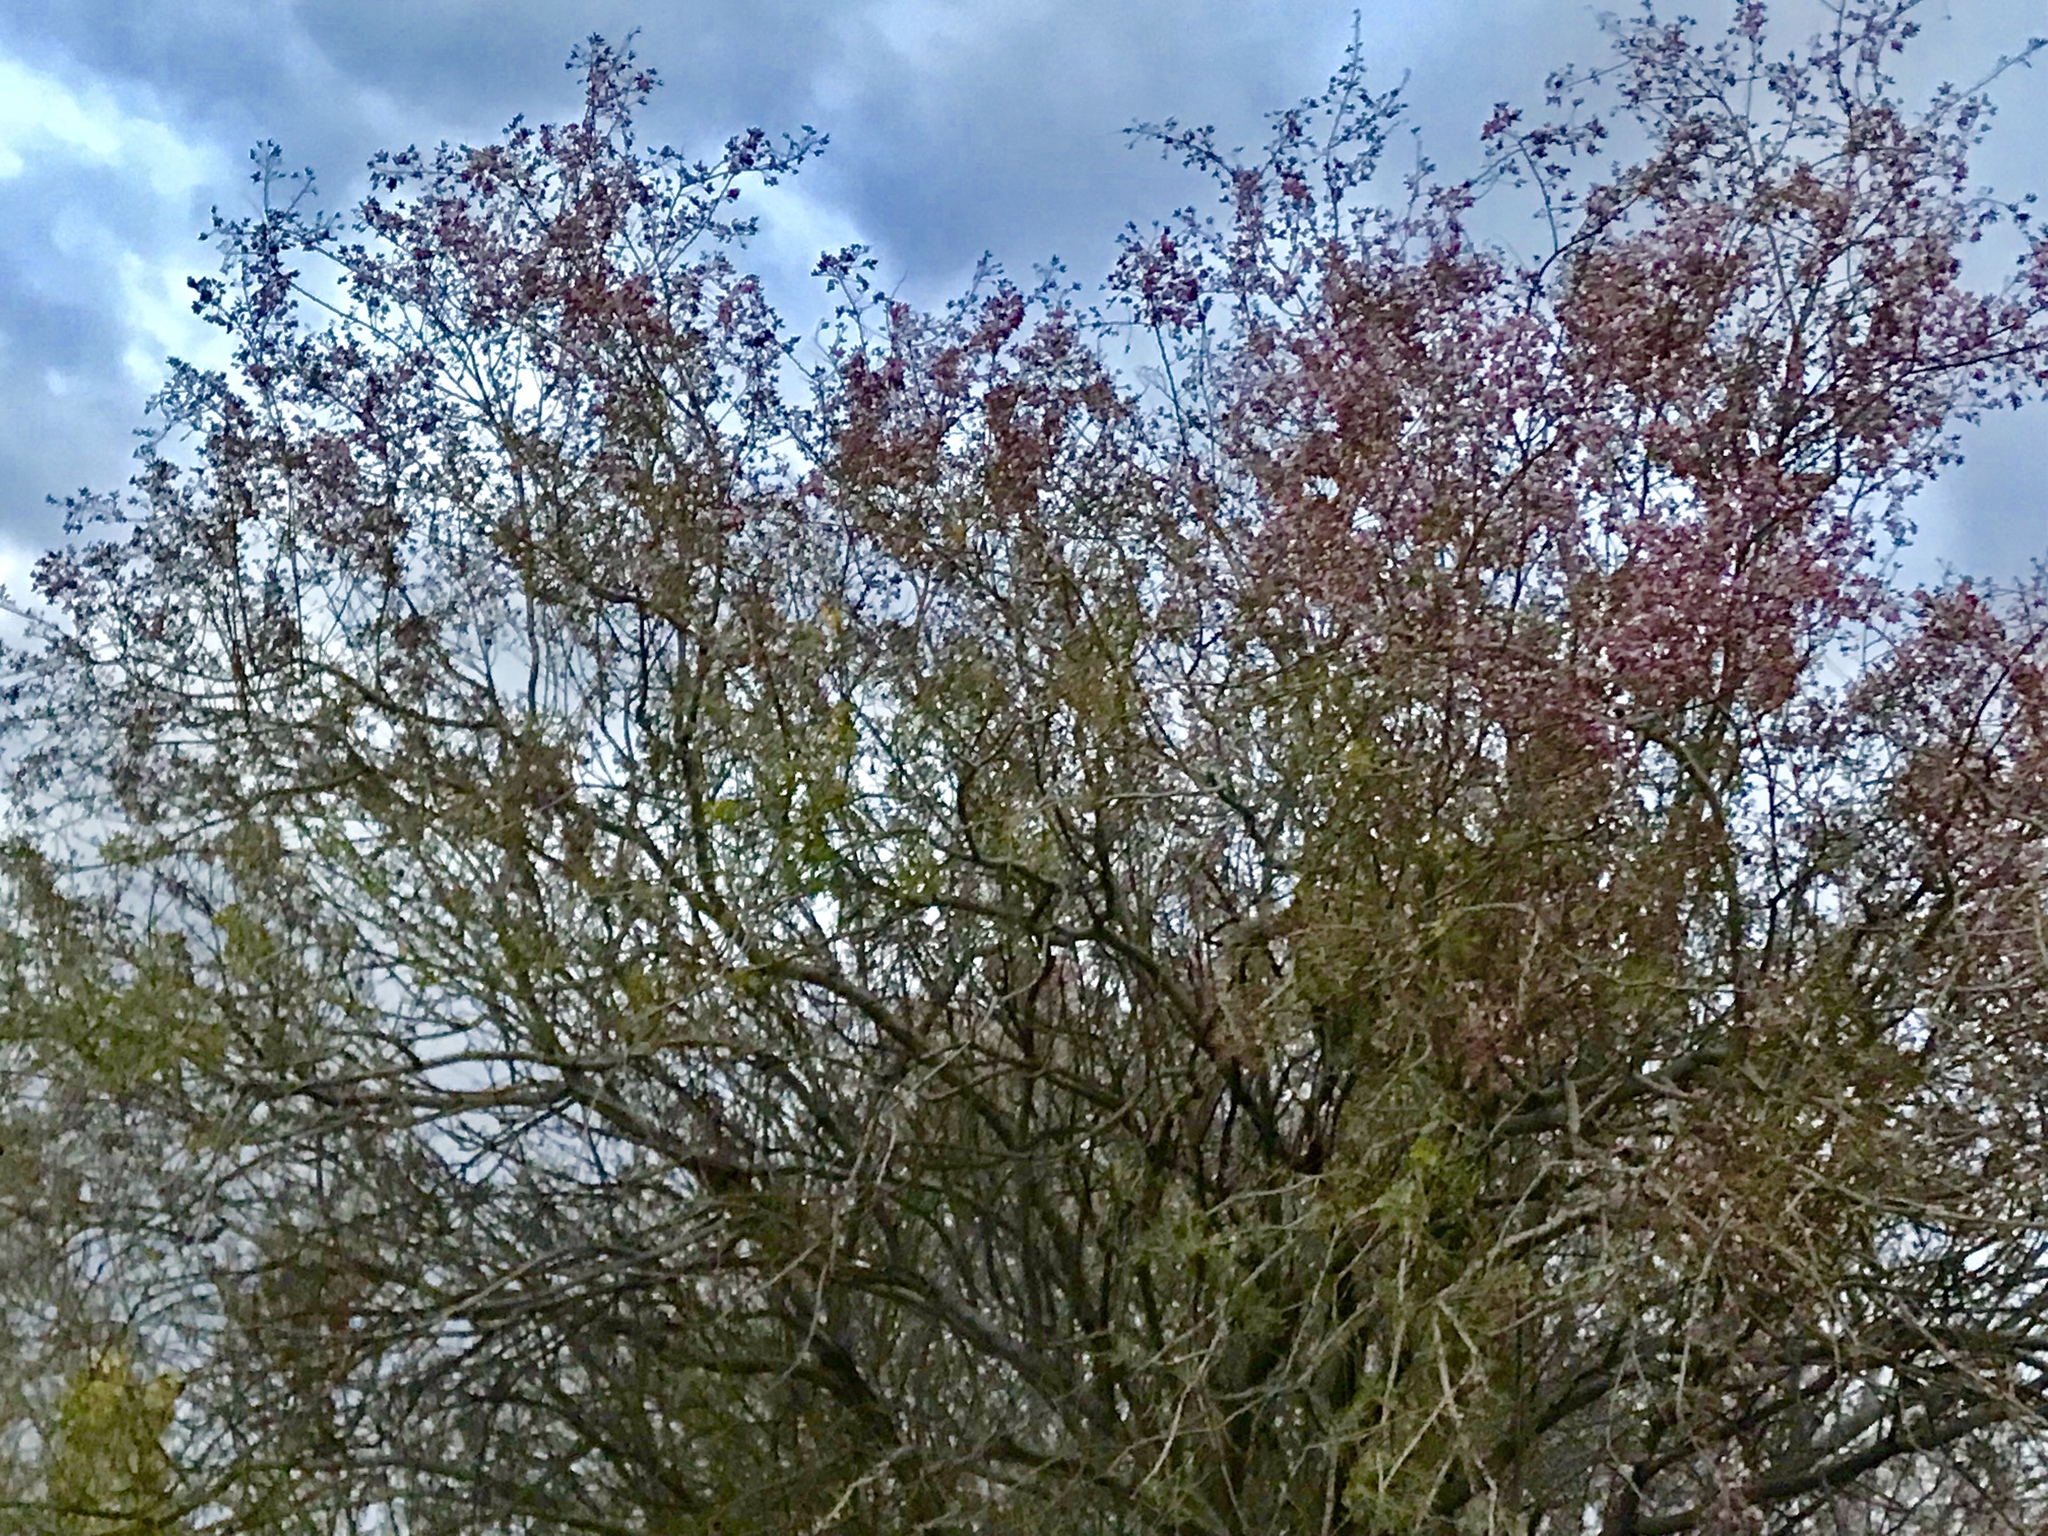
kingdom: Plantae
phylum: Tracheophyta
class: Magnoliopsida
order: Fabales
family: Fabaceae
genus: Olneya
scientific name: Olneya tesota
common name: Desert ironwood
